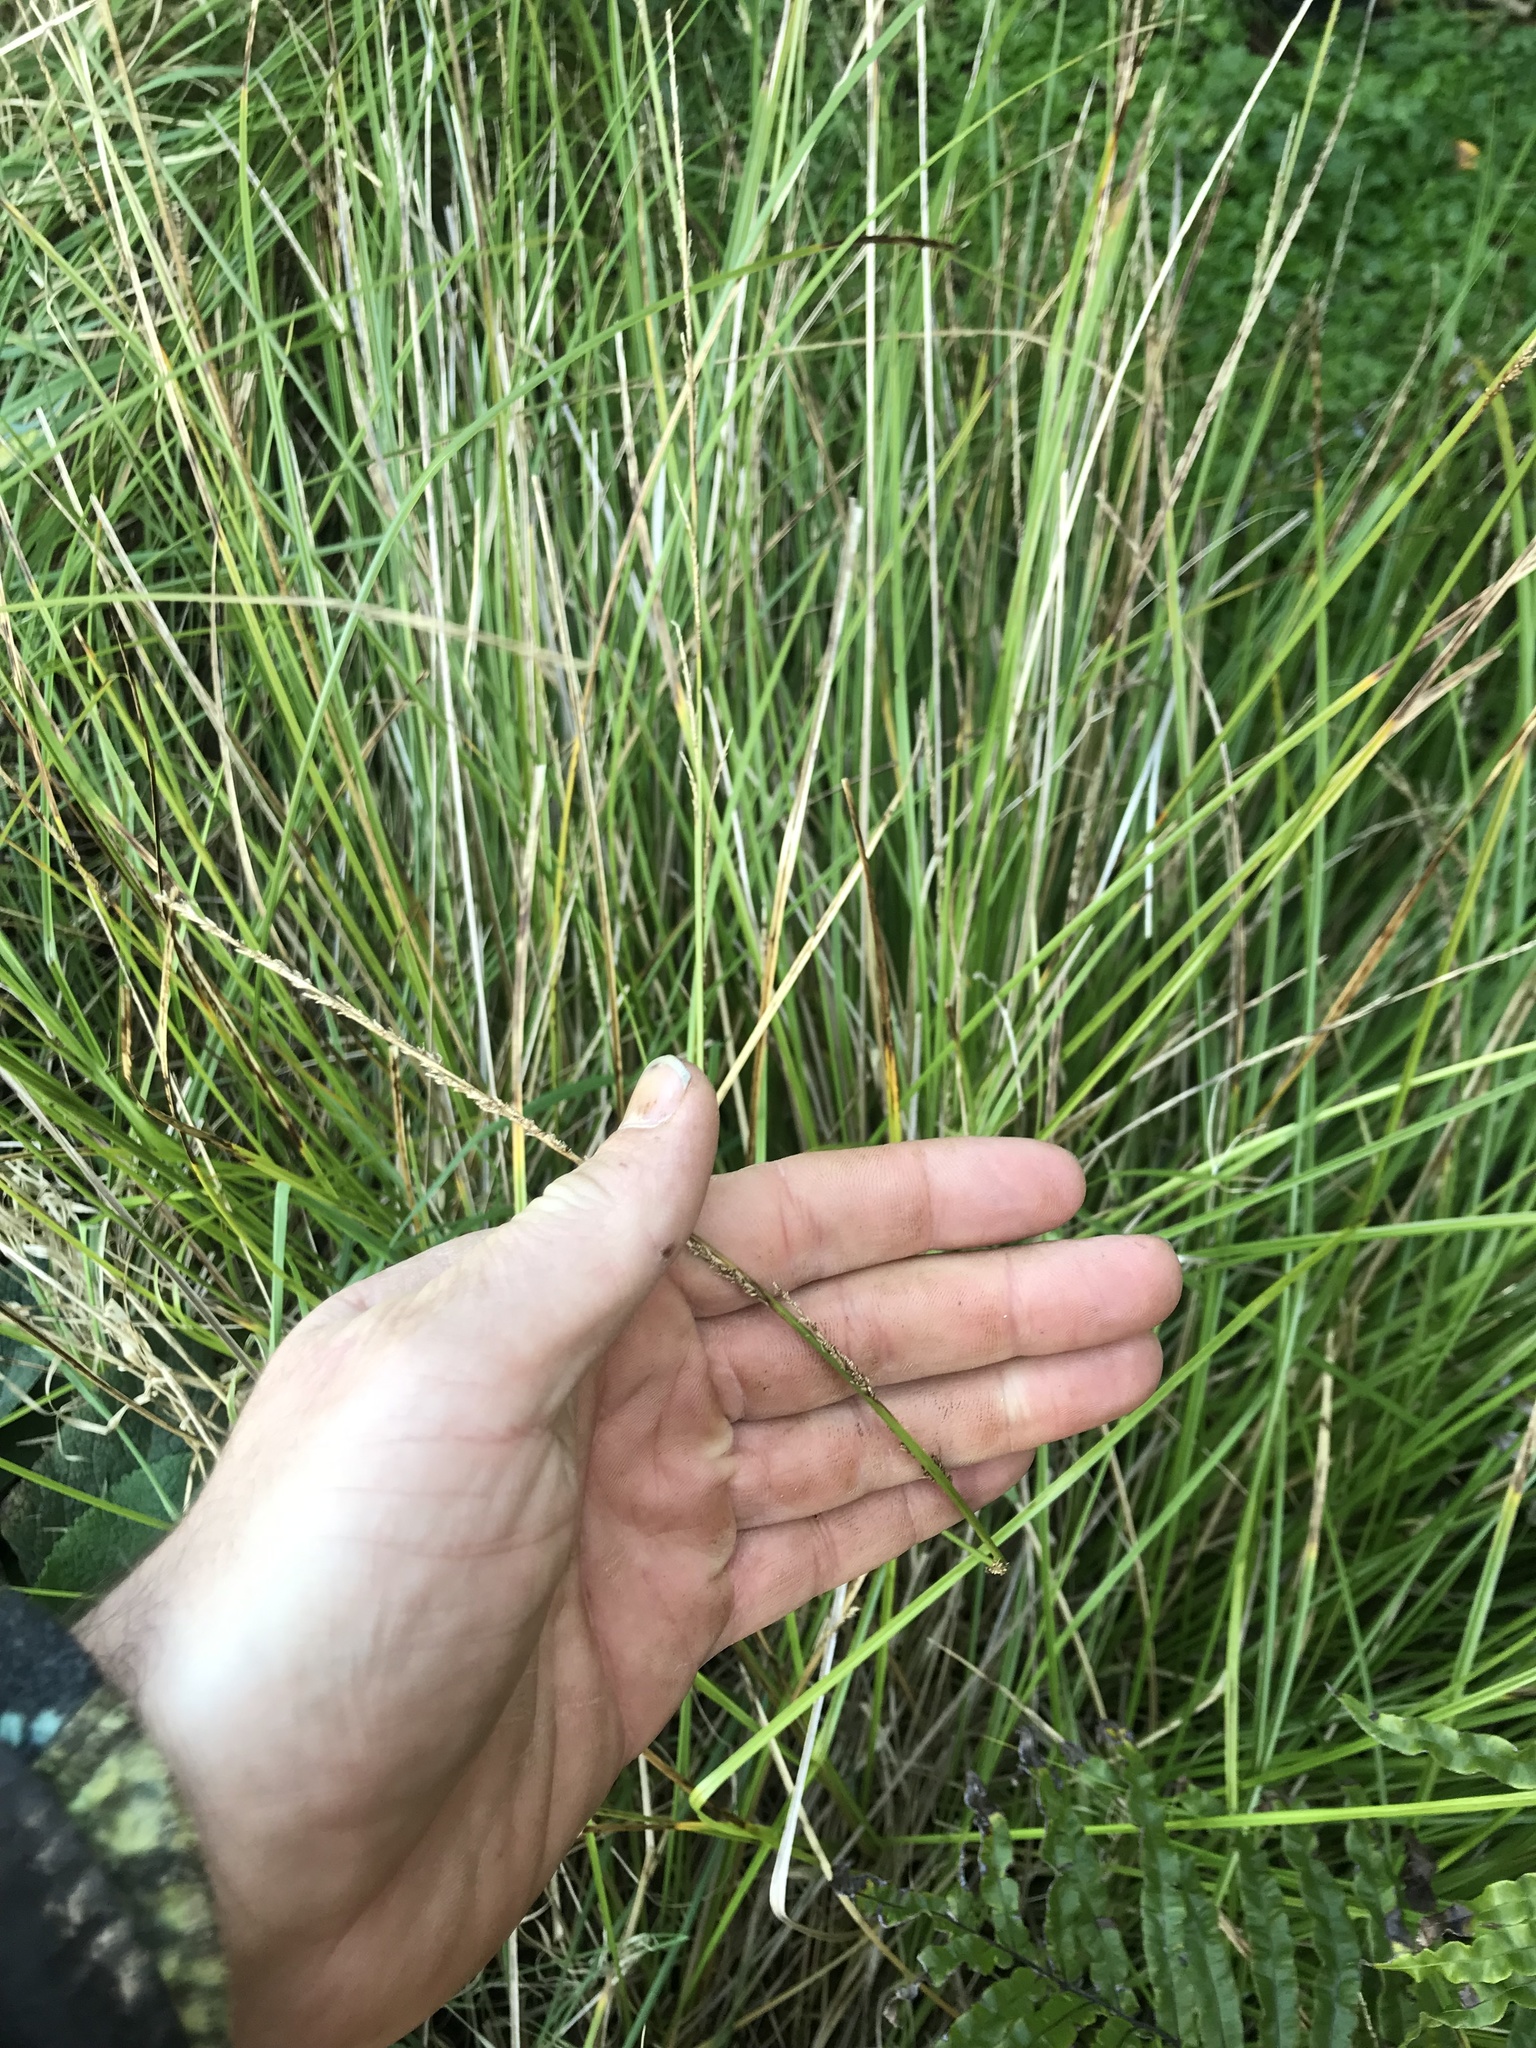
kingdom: Plantae
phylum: Tracheophyta
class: Liliopsida
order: Poales
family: Cyperaceae
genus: Carex
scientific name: Carex virgata
